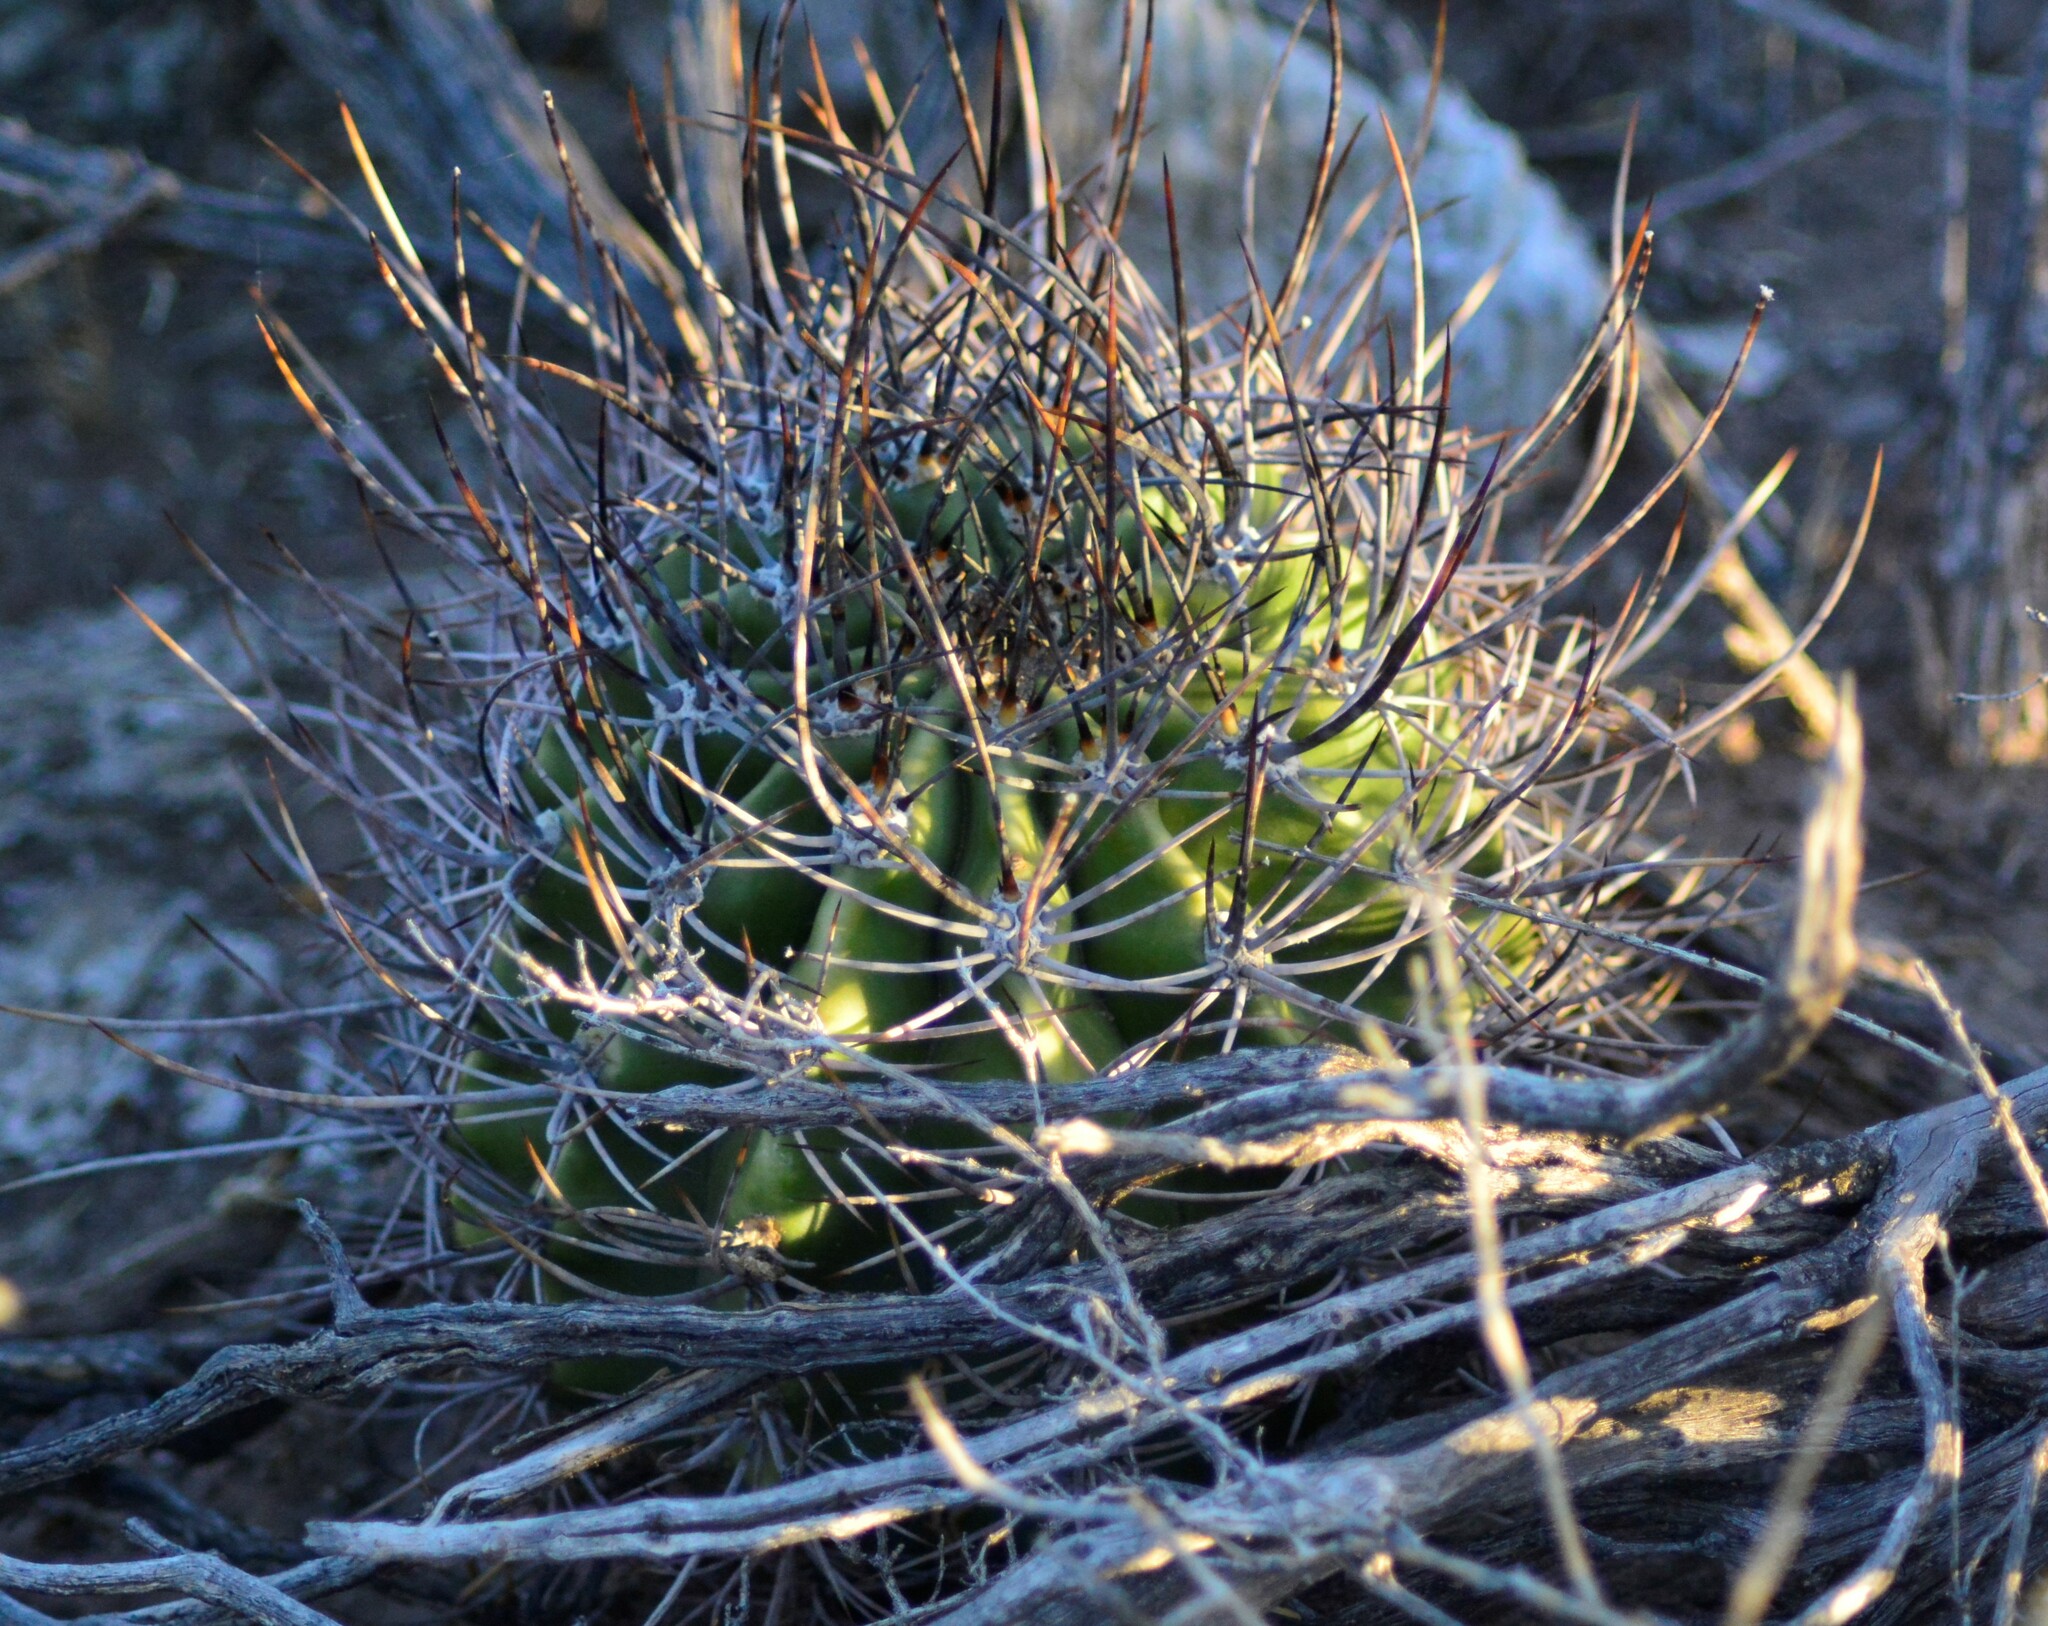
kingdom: Plantae
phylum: Tracheophyta
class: Magnoliopsida
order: Caryophyllales
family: Cactaceae
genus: Acanthocalycium
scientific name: Acanthocalycium leucanthum
